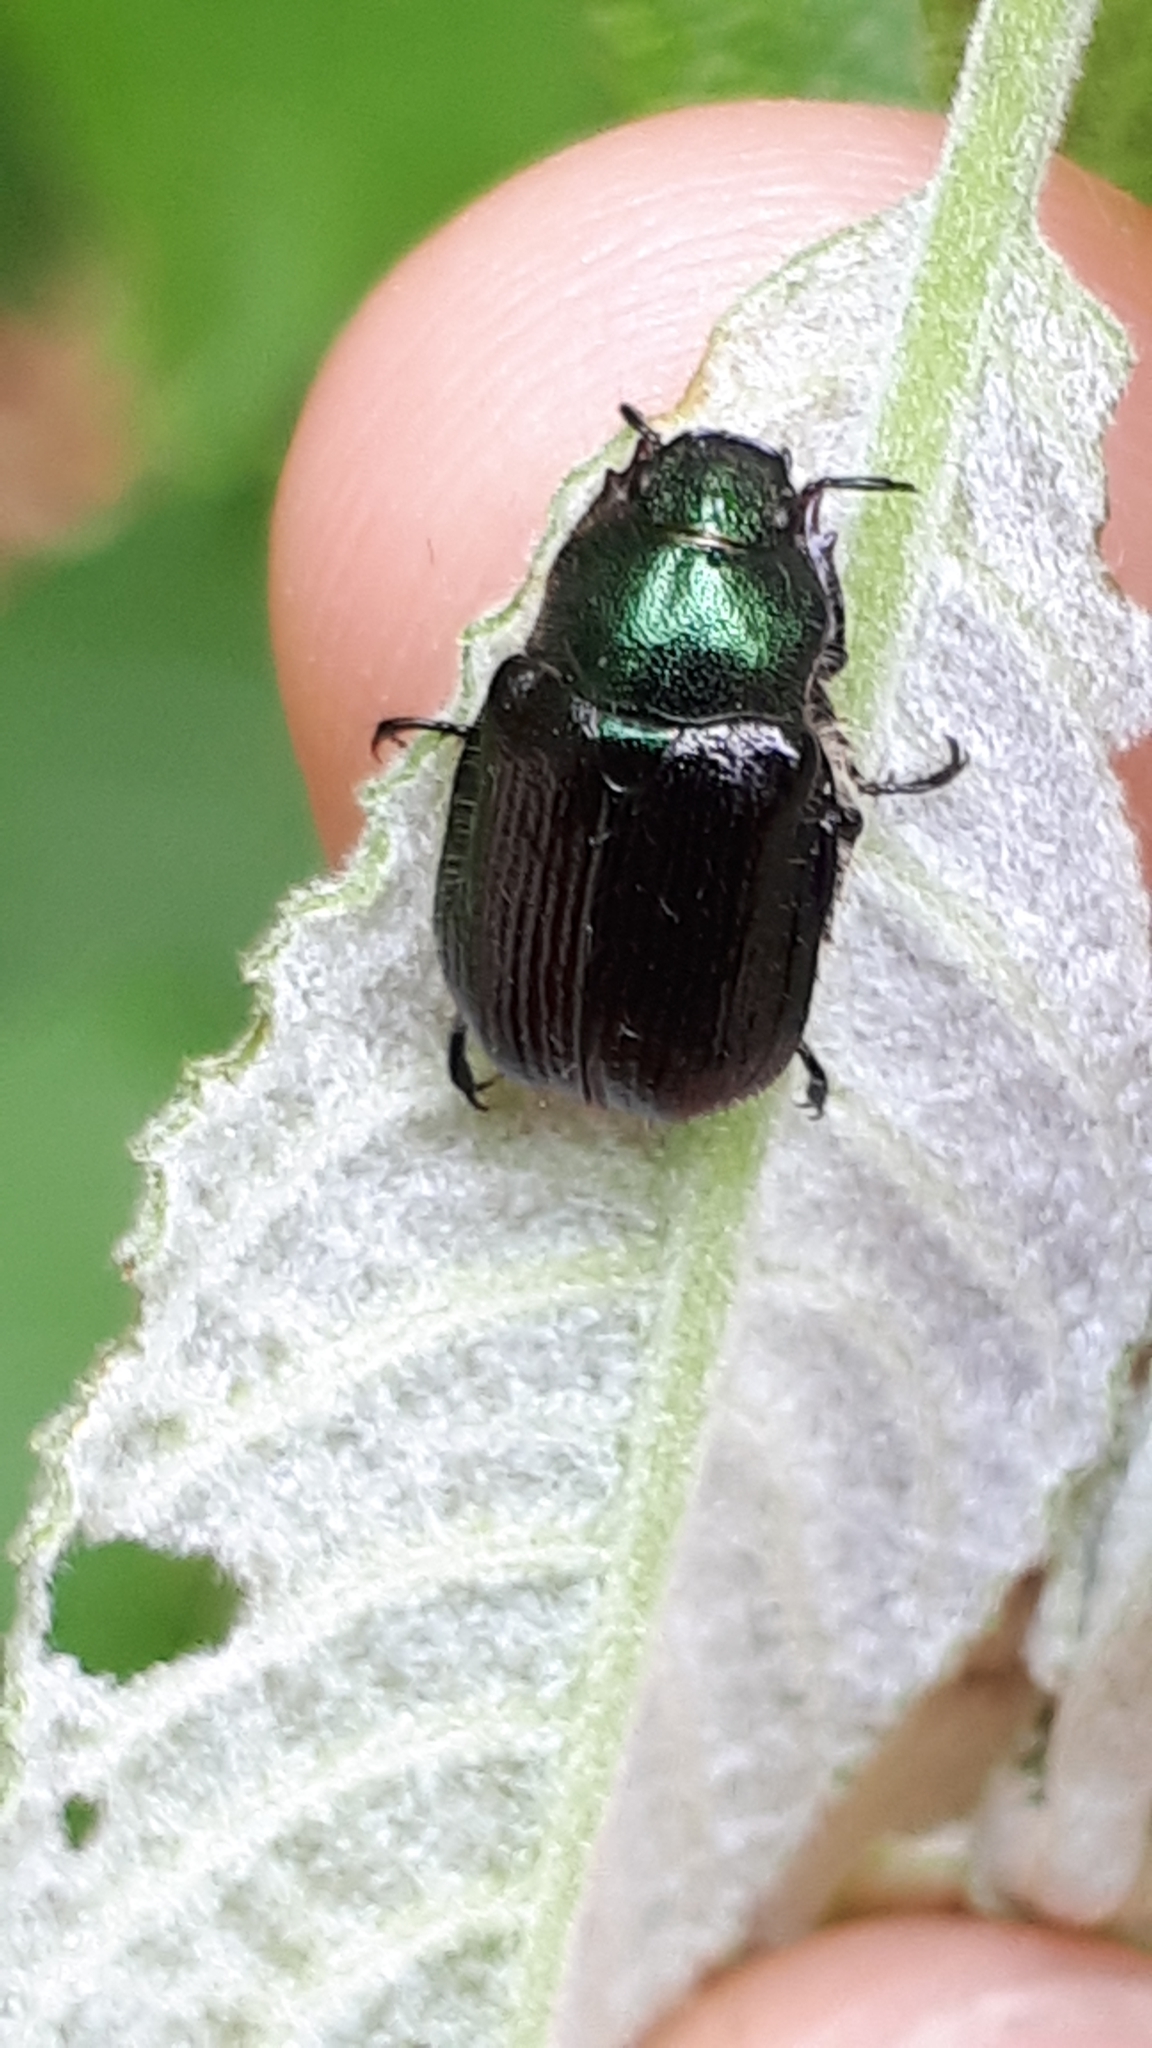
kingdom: Animalia
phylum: Arthropoda
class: Insecta
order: Coleoptera
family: Scarabaeidae
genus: Phyllopertha
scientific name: Phyllopertha horticola
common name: Garden chafer
